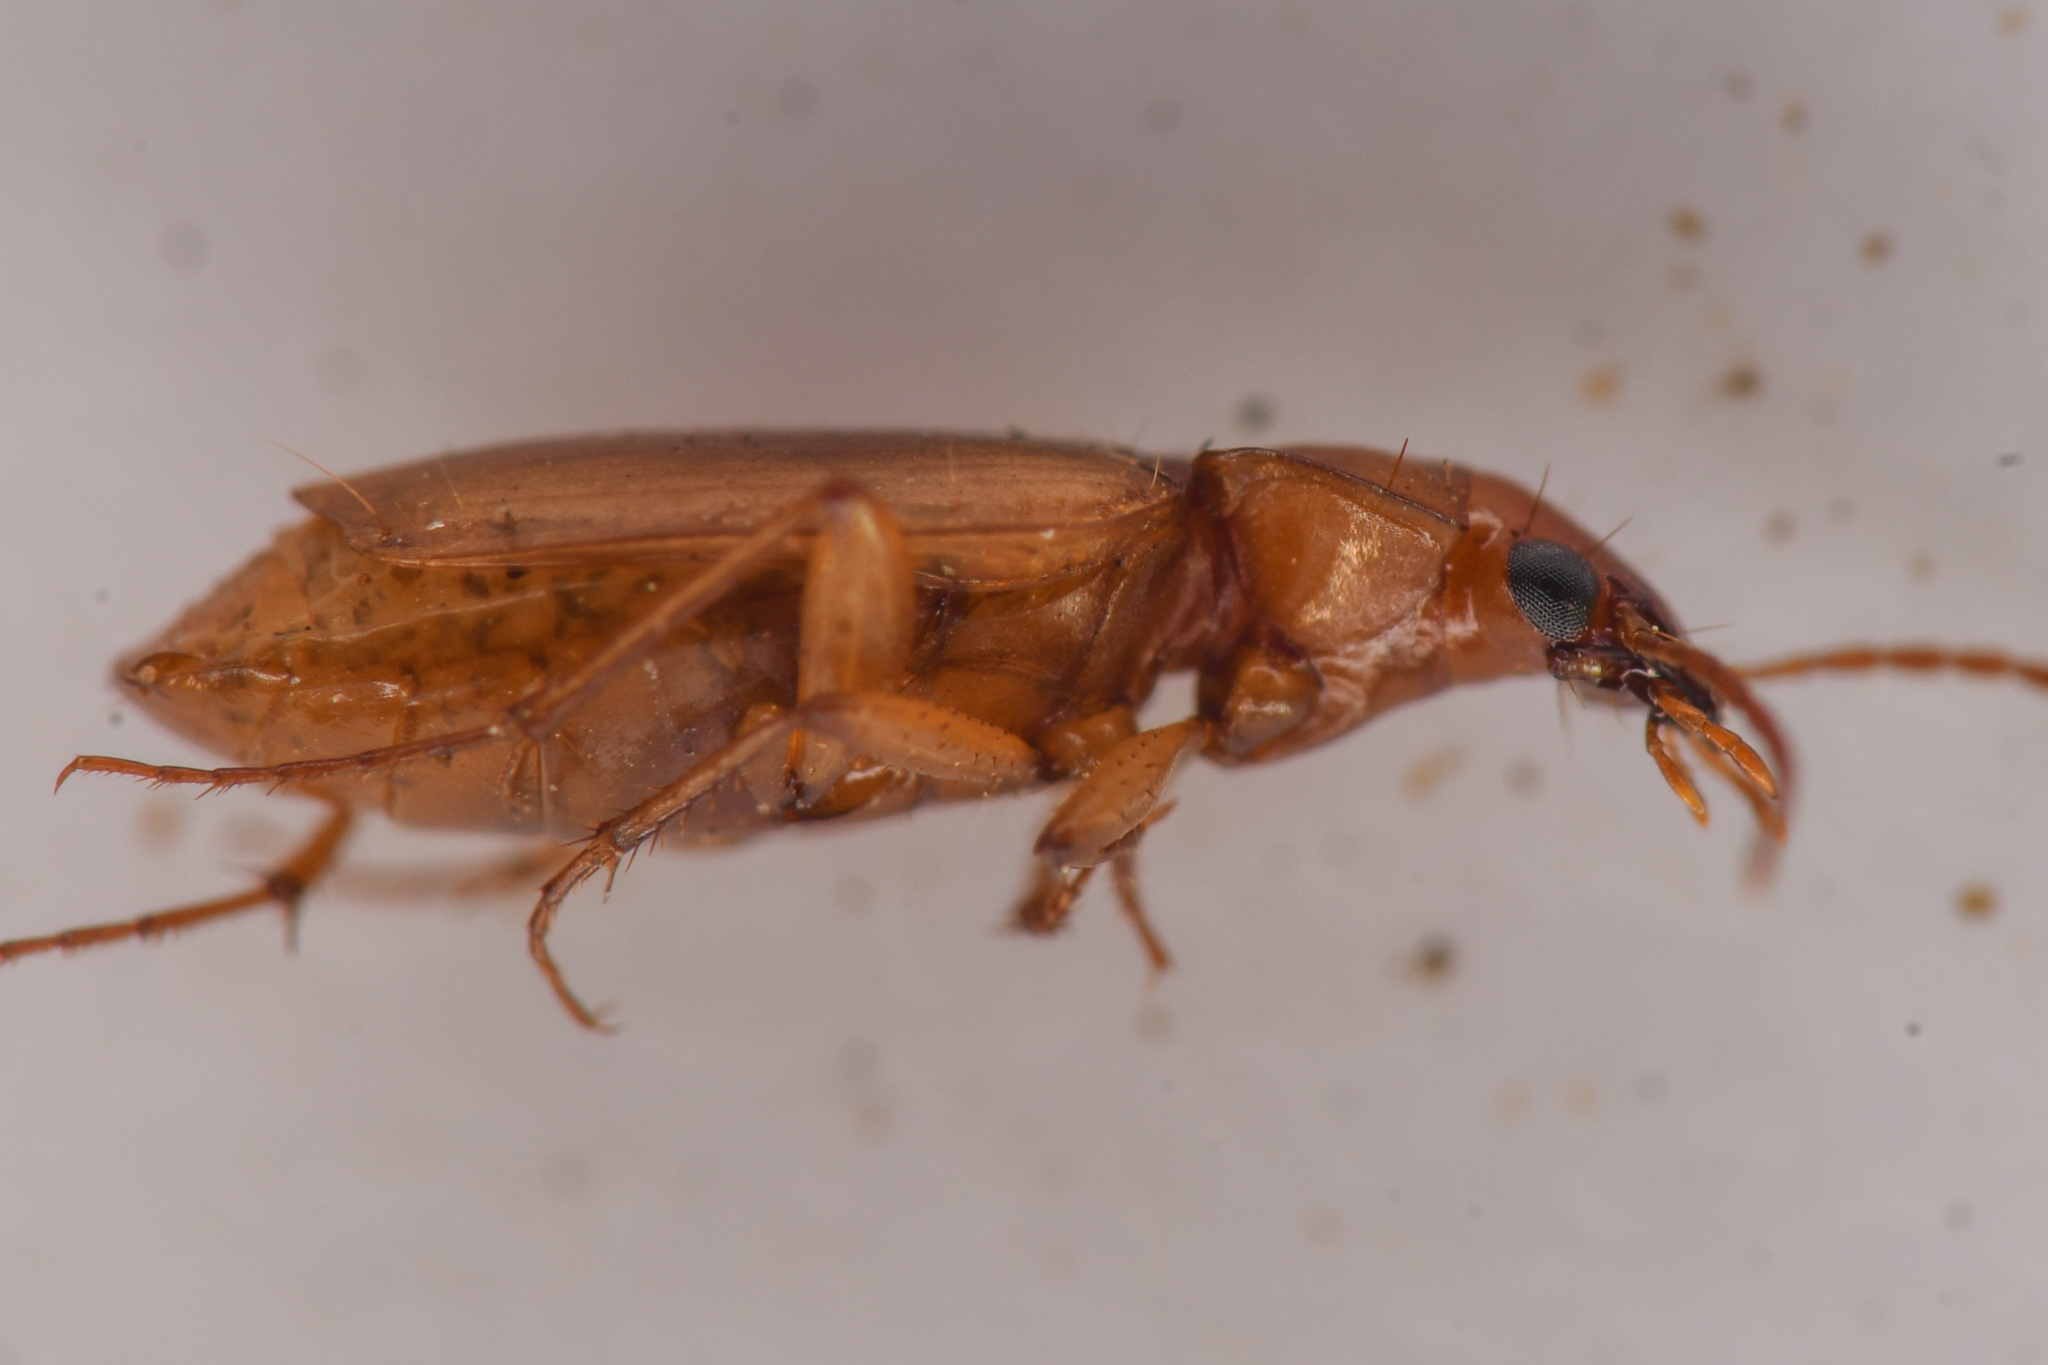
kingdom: Animalia
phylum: Arthropoda
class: Insecta
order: Coleoptera
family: Carabidae
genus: Tetragonoderus
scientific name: Tetragonoderus pallidus
